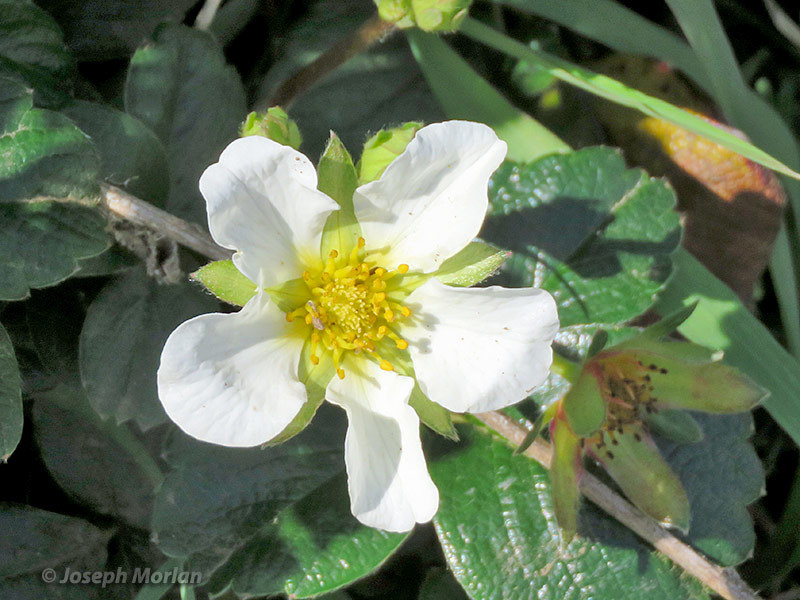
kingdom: Plantae
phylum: Tracheophyta
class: Magnoliopsida
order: Rosales
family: Rosaceae
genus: Fragaria
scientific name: Fragaria chiloensis
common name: Beach strawberry
